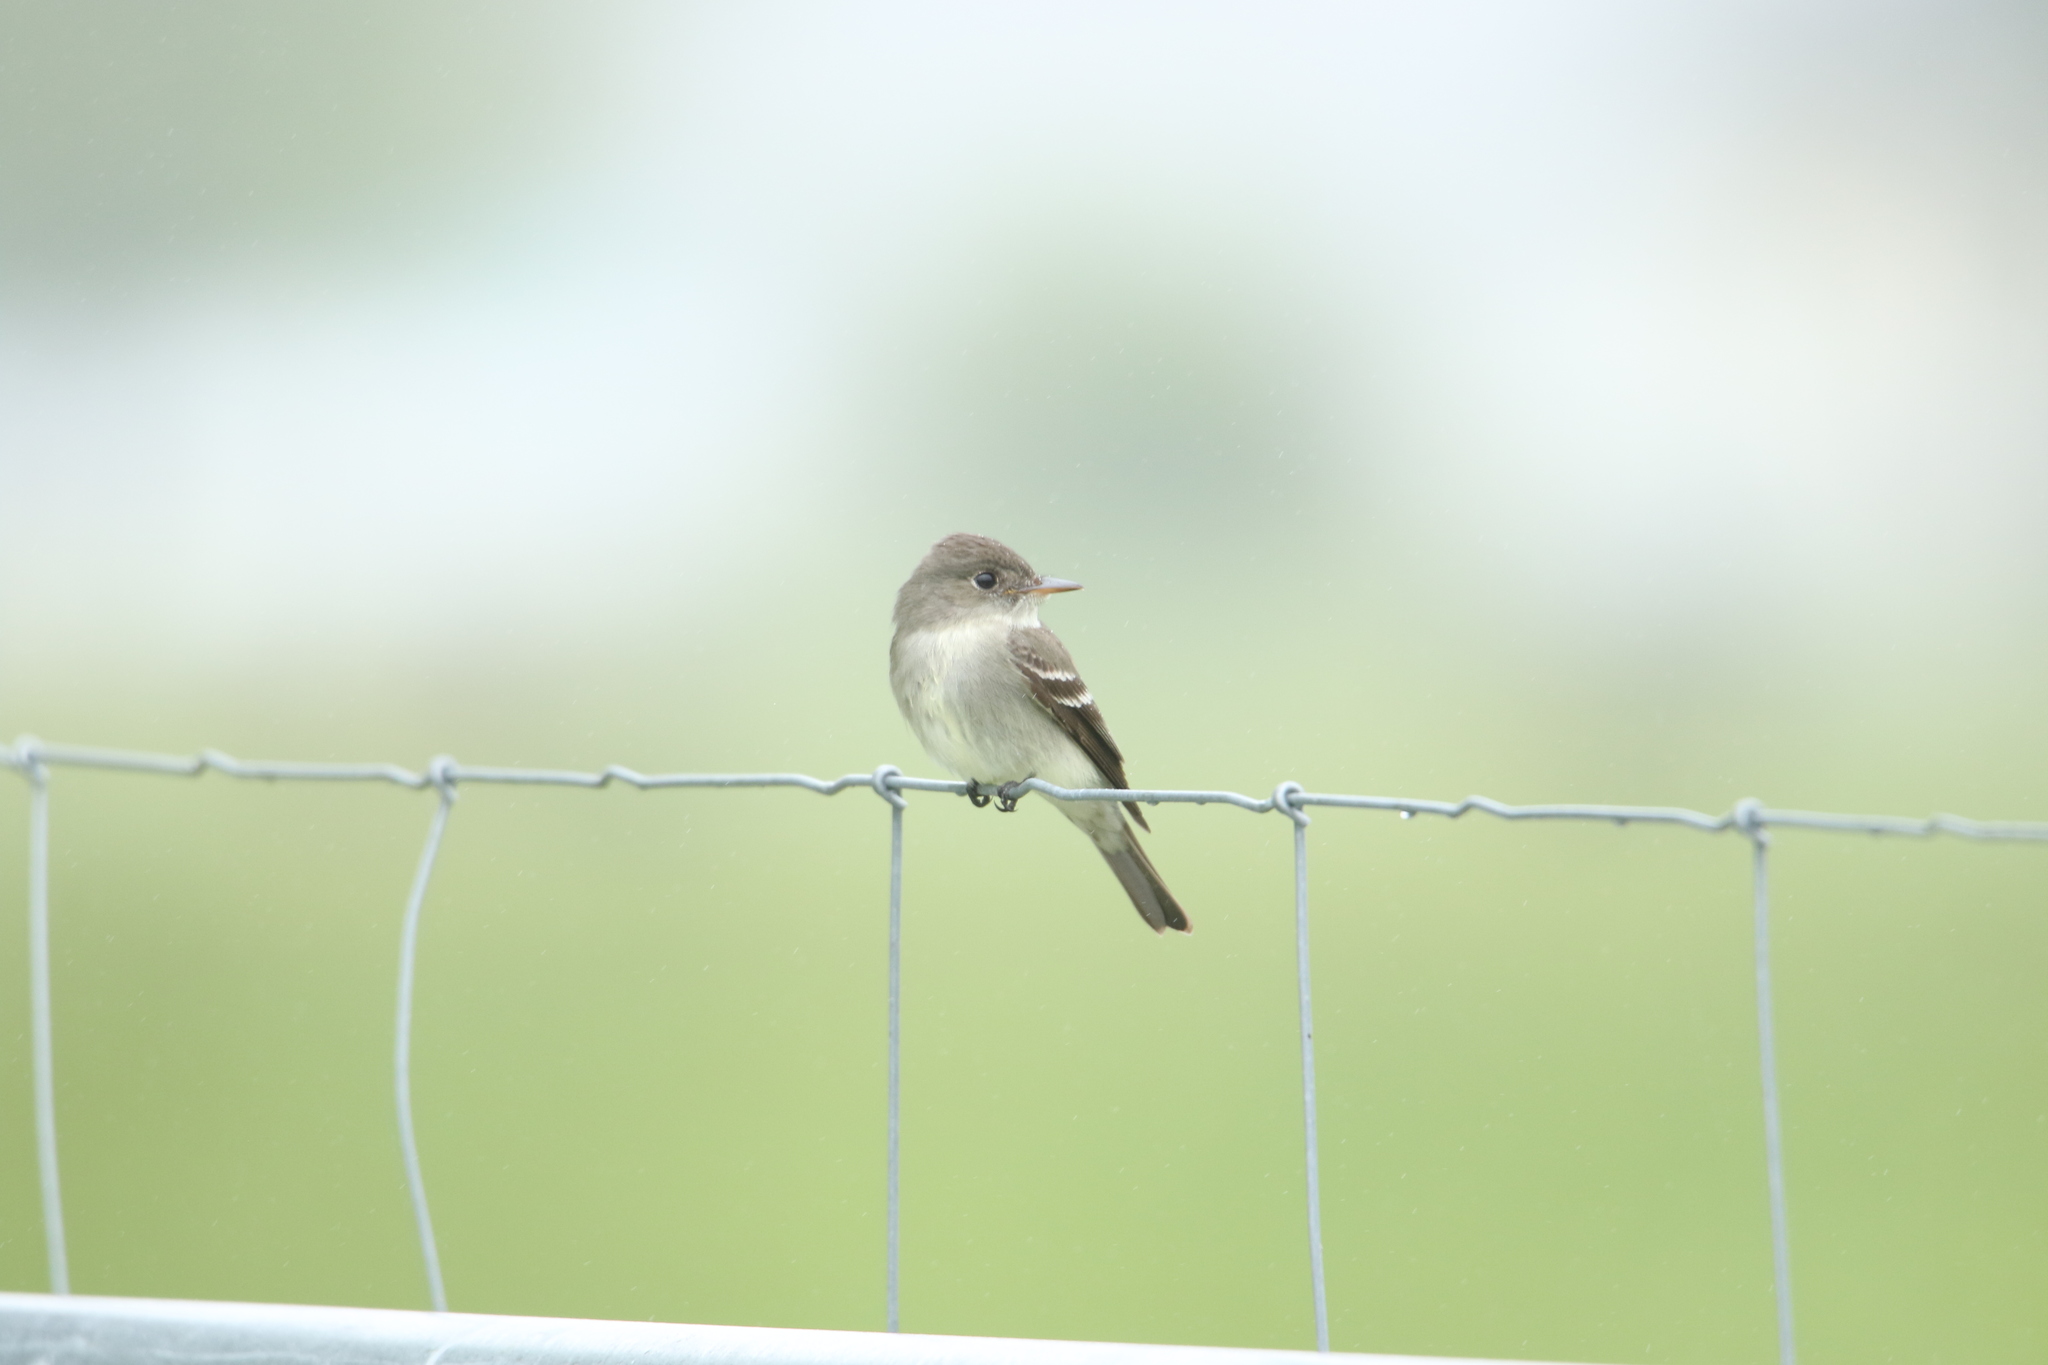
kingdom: Animalia
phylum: Chordata
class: Aves
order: Passeriformes
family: Tyrannidae
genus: Contopus
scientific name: Contopus virens
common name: Eastern wood-pewee
